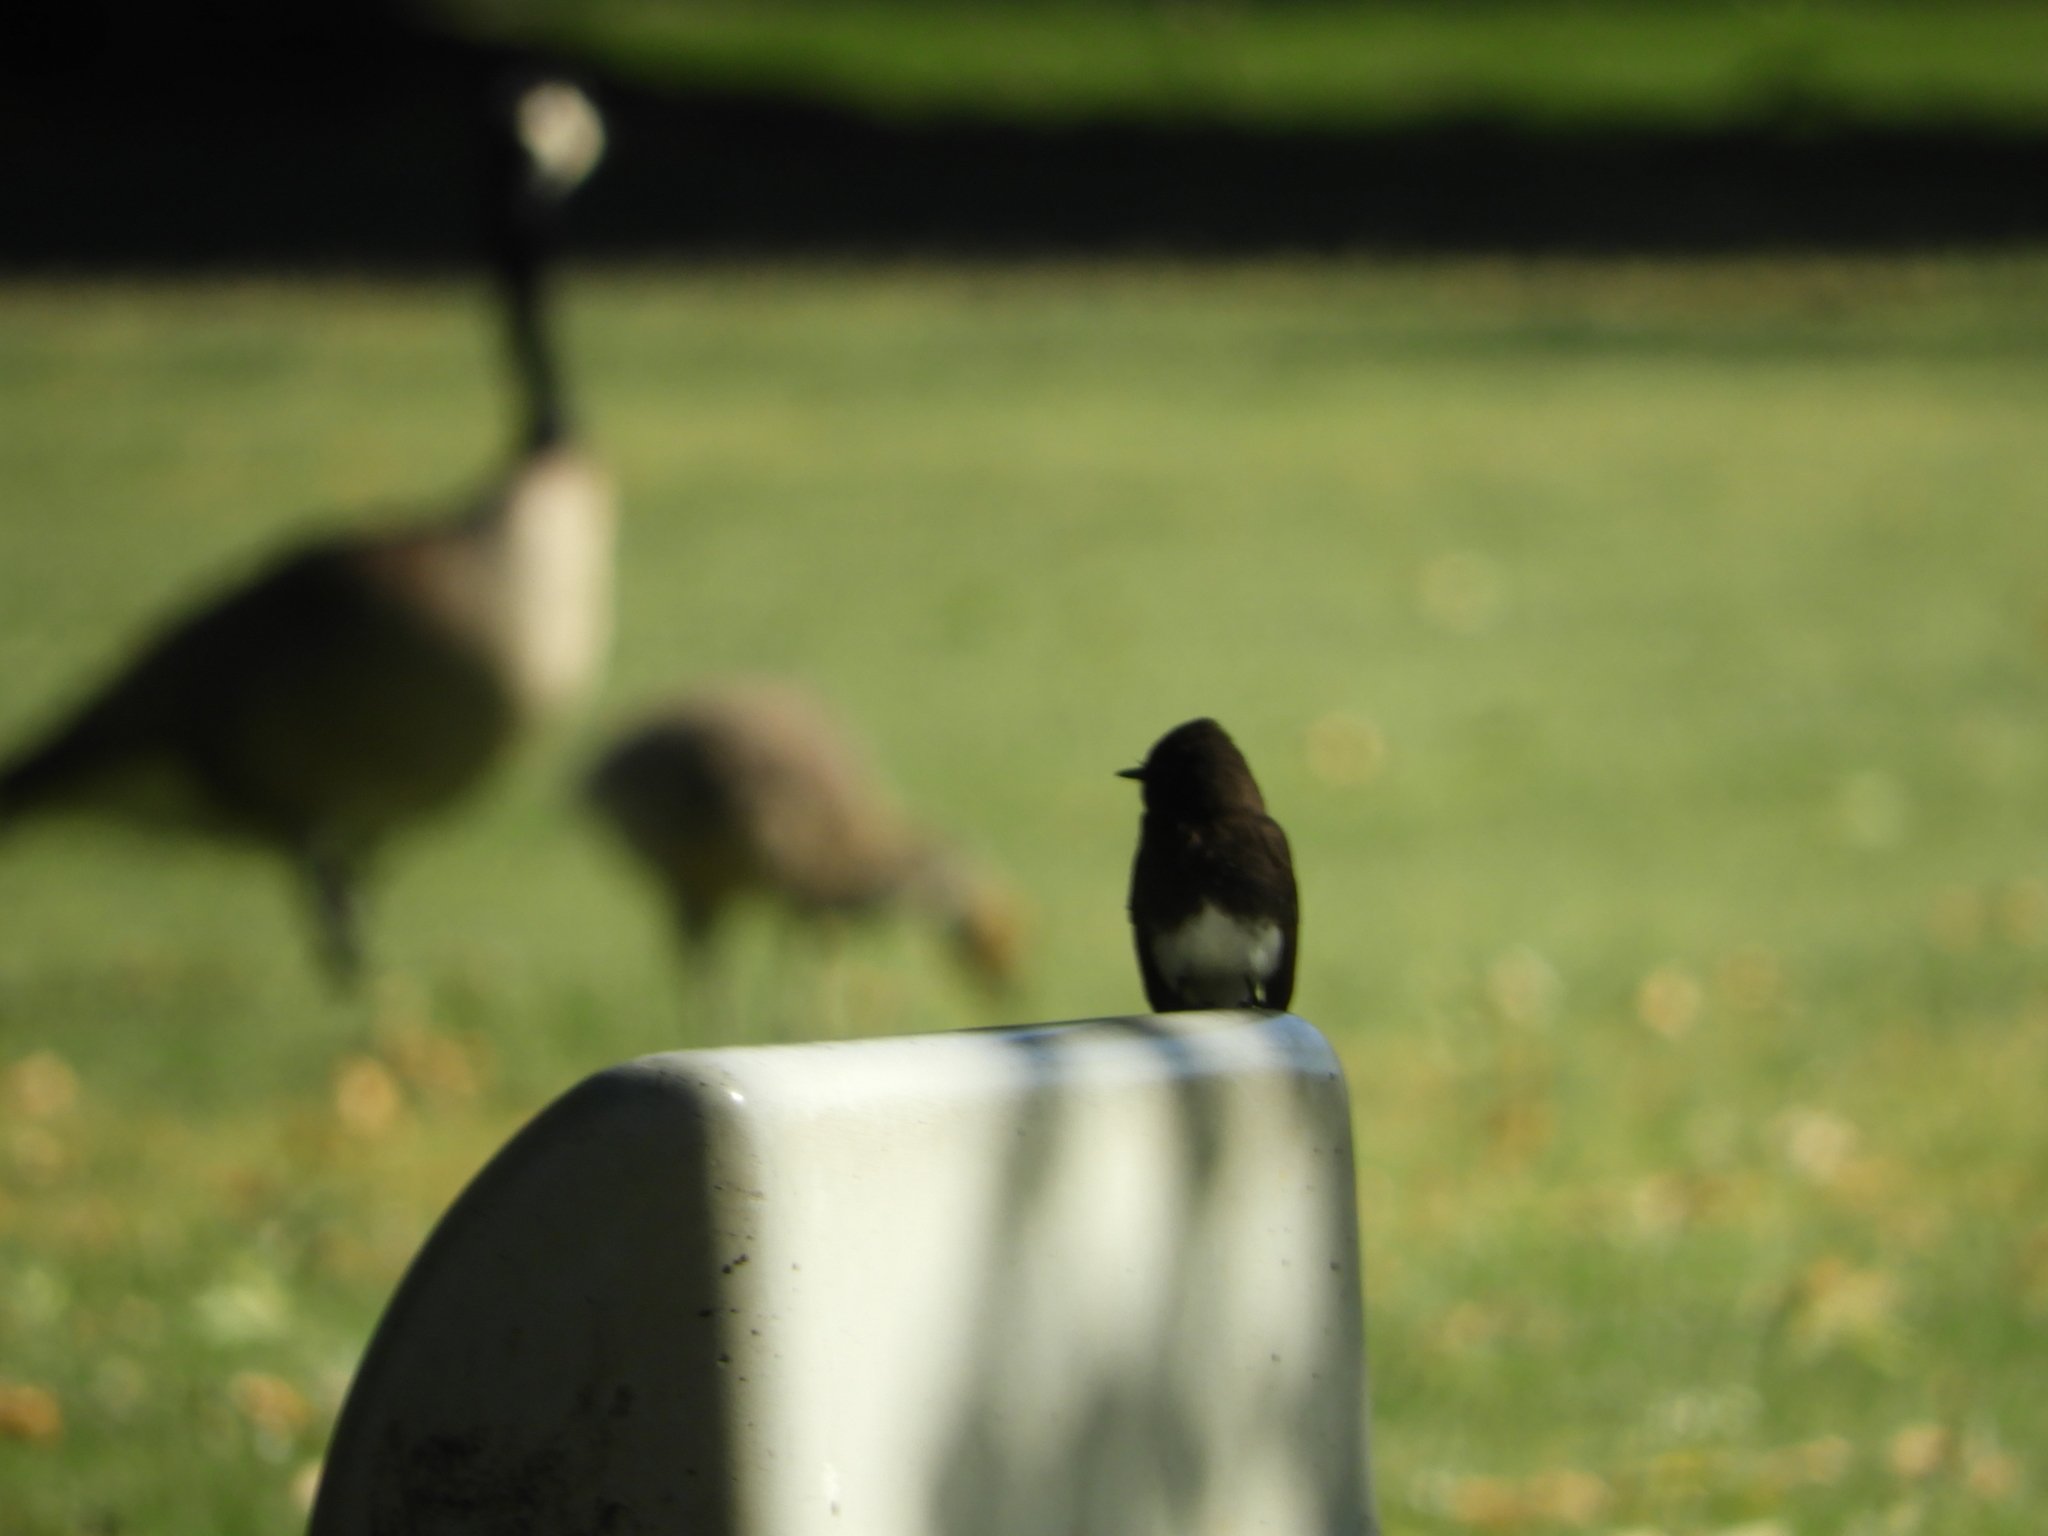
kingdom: Animalia
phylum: Chordata
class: Aves
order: Passeriformes
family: Tyrannidae
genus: Sayornis
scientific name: Sayornis nigricans
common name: Black phoebe
